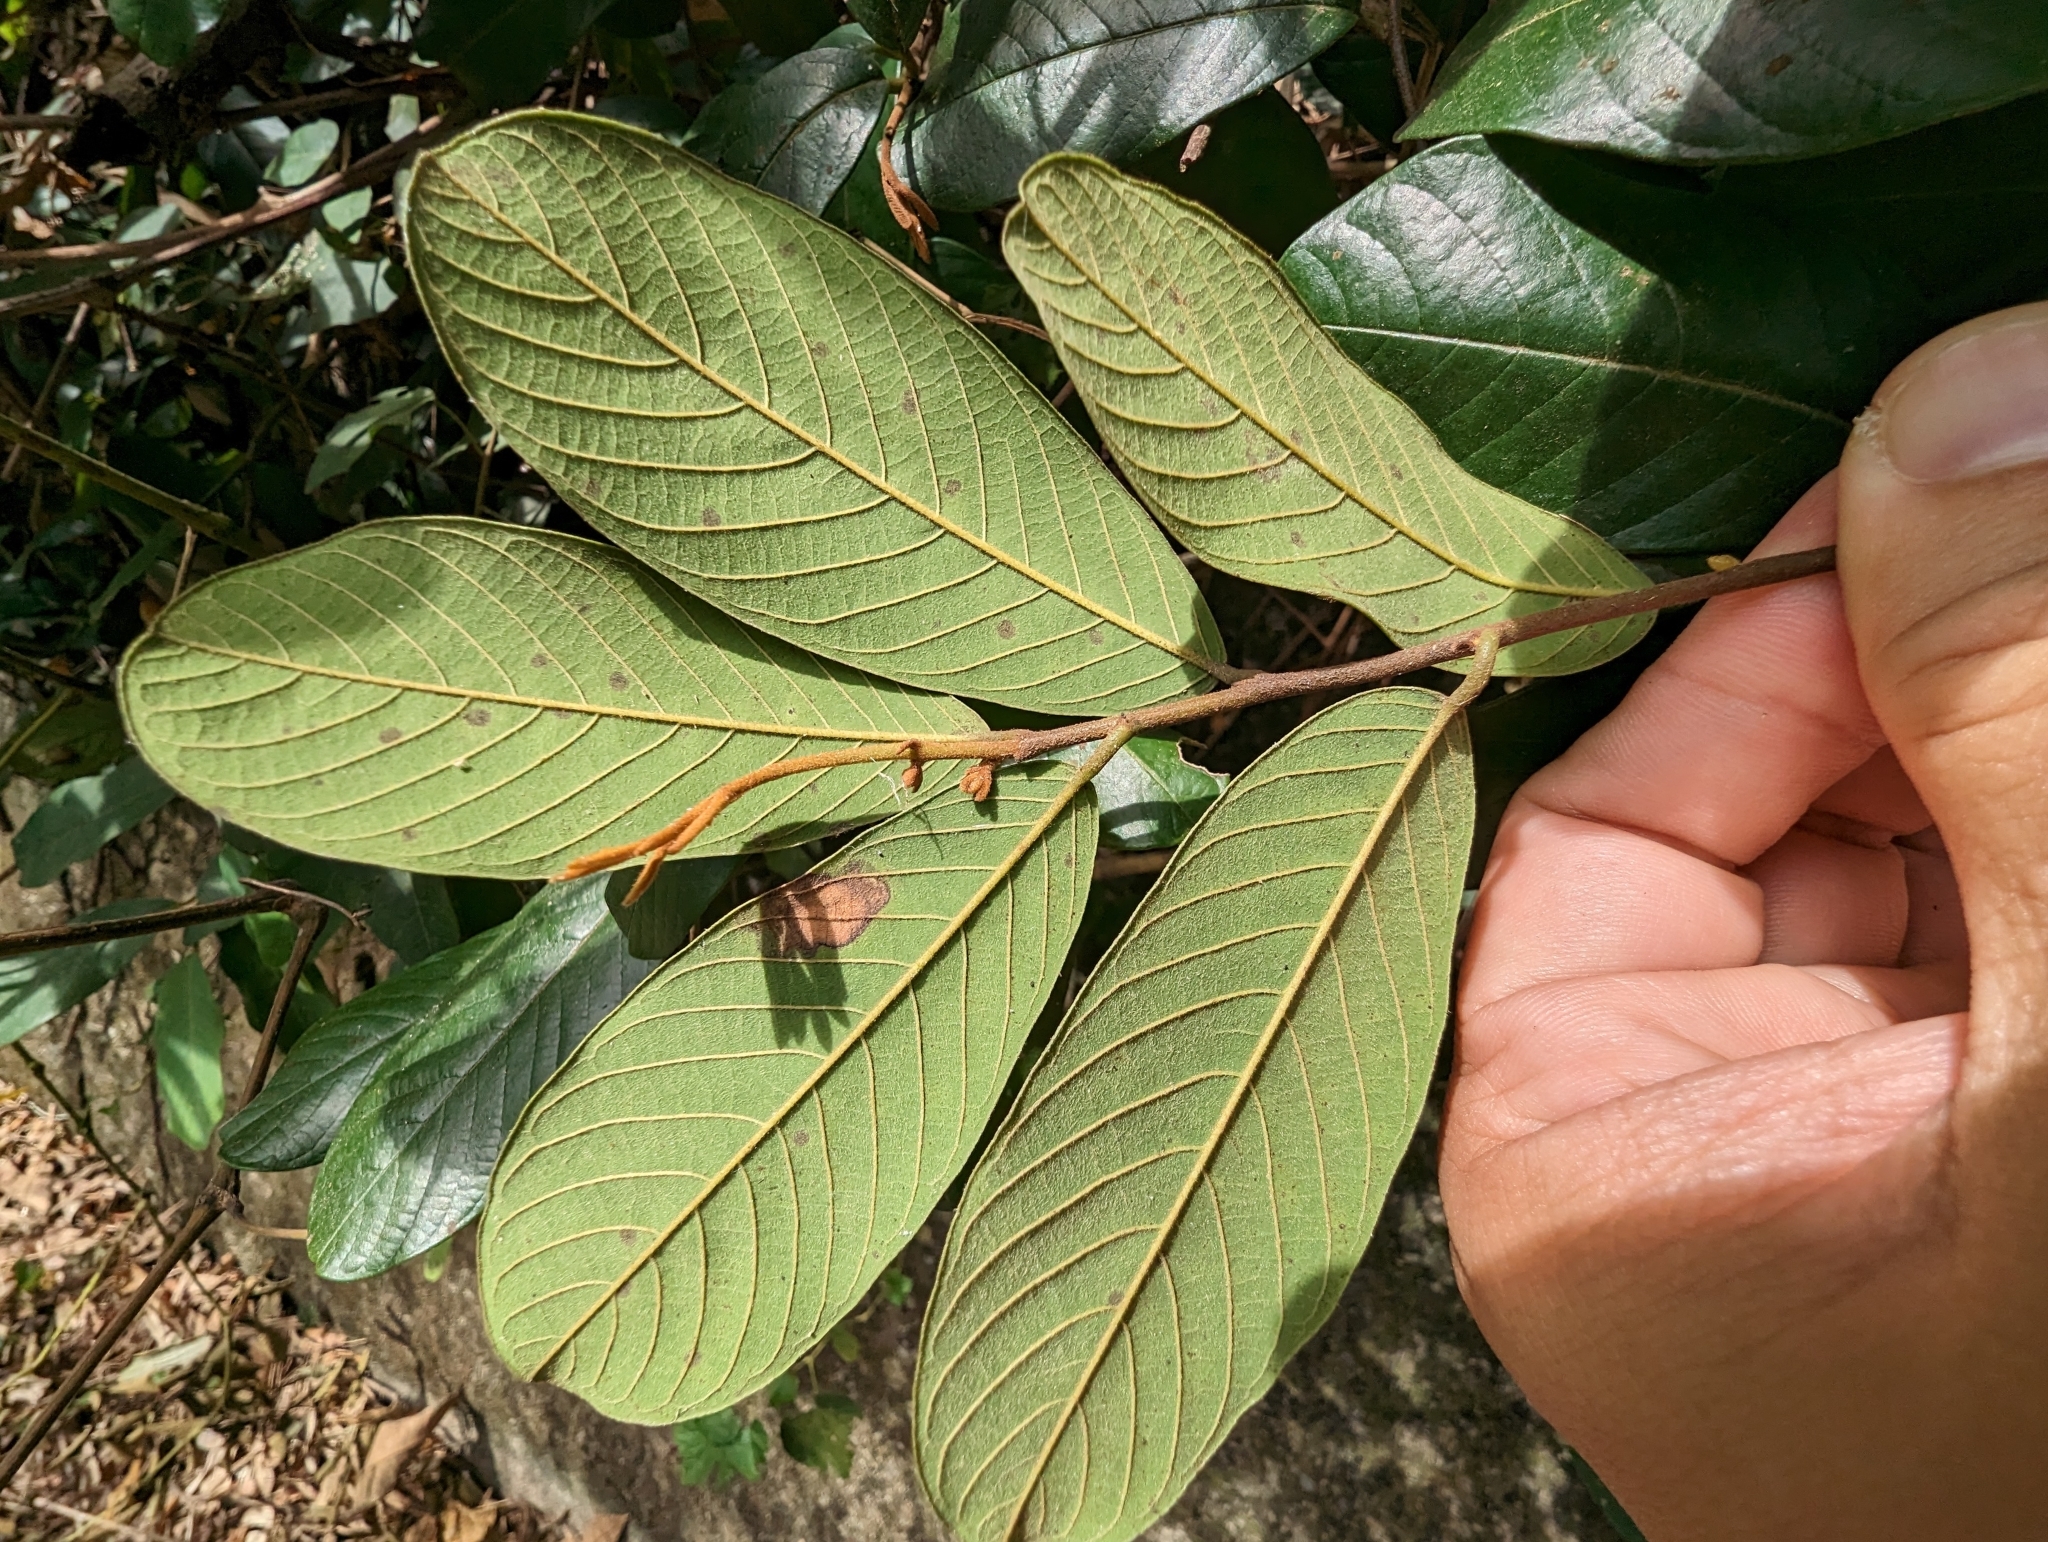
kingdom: Plantae
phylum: Tracheophyta
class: Magnoliopsida
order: Magnoliales
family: Annonaceae
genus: Fissistigma
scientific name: Fissistigma oldhamii
